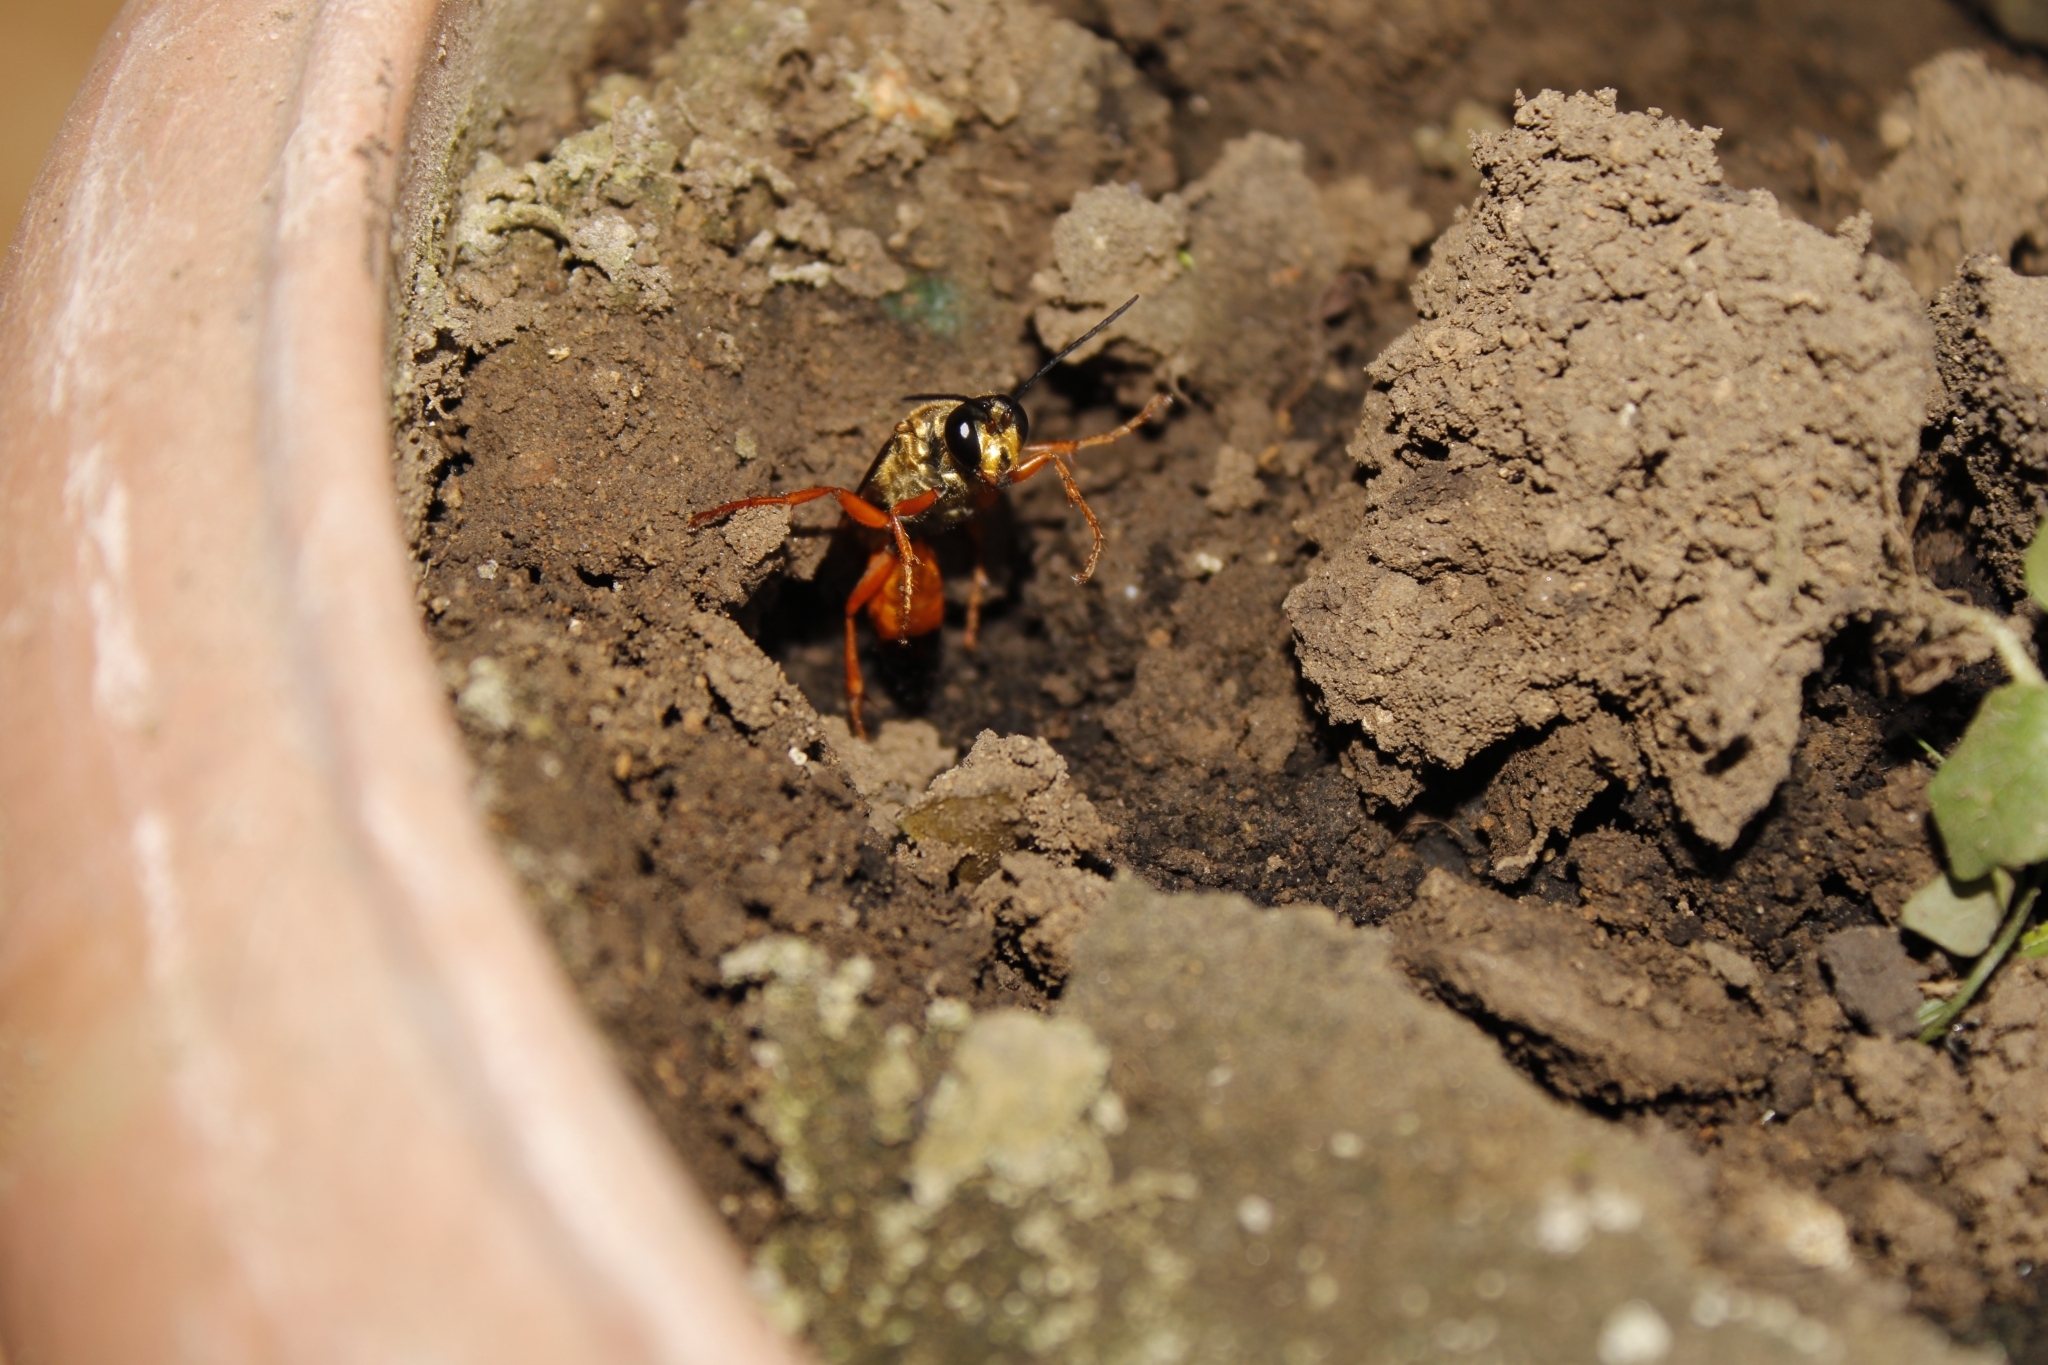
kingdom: Animalia
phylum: Arthropoda
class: Insecta
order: Hymenoptera
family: Sphecidae
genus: Sphex
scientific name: Sphex ichneumoneus
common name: Great golden digger wasp
